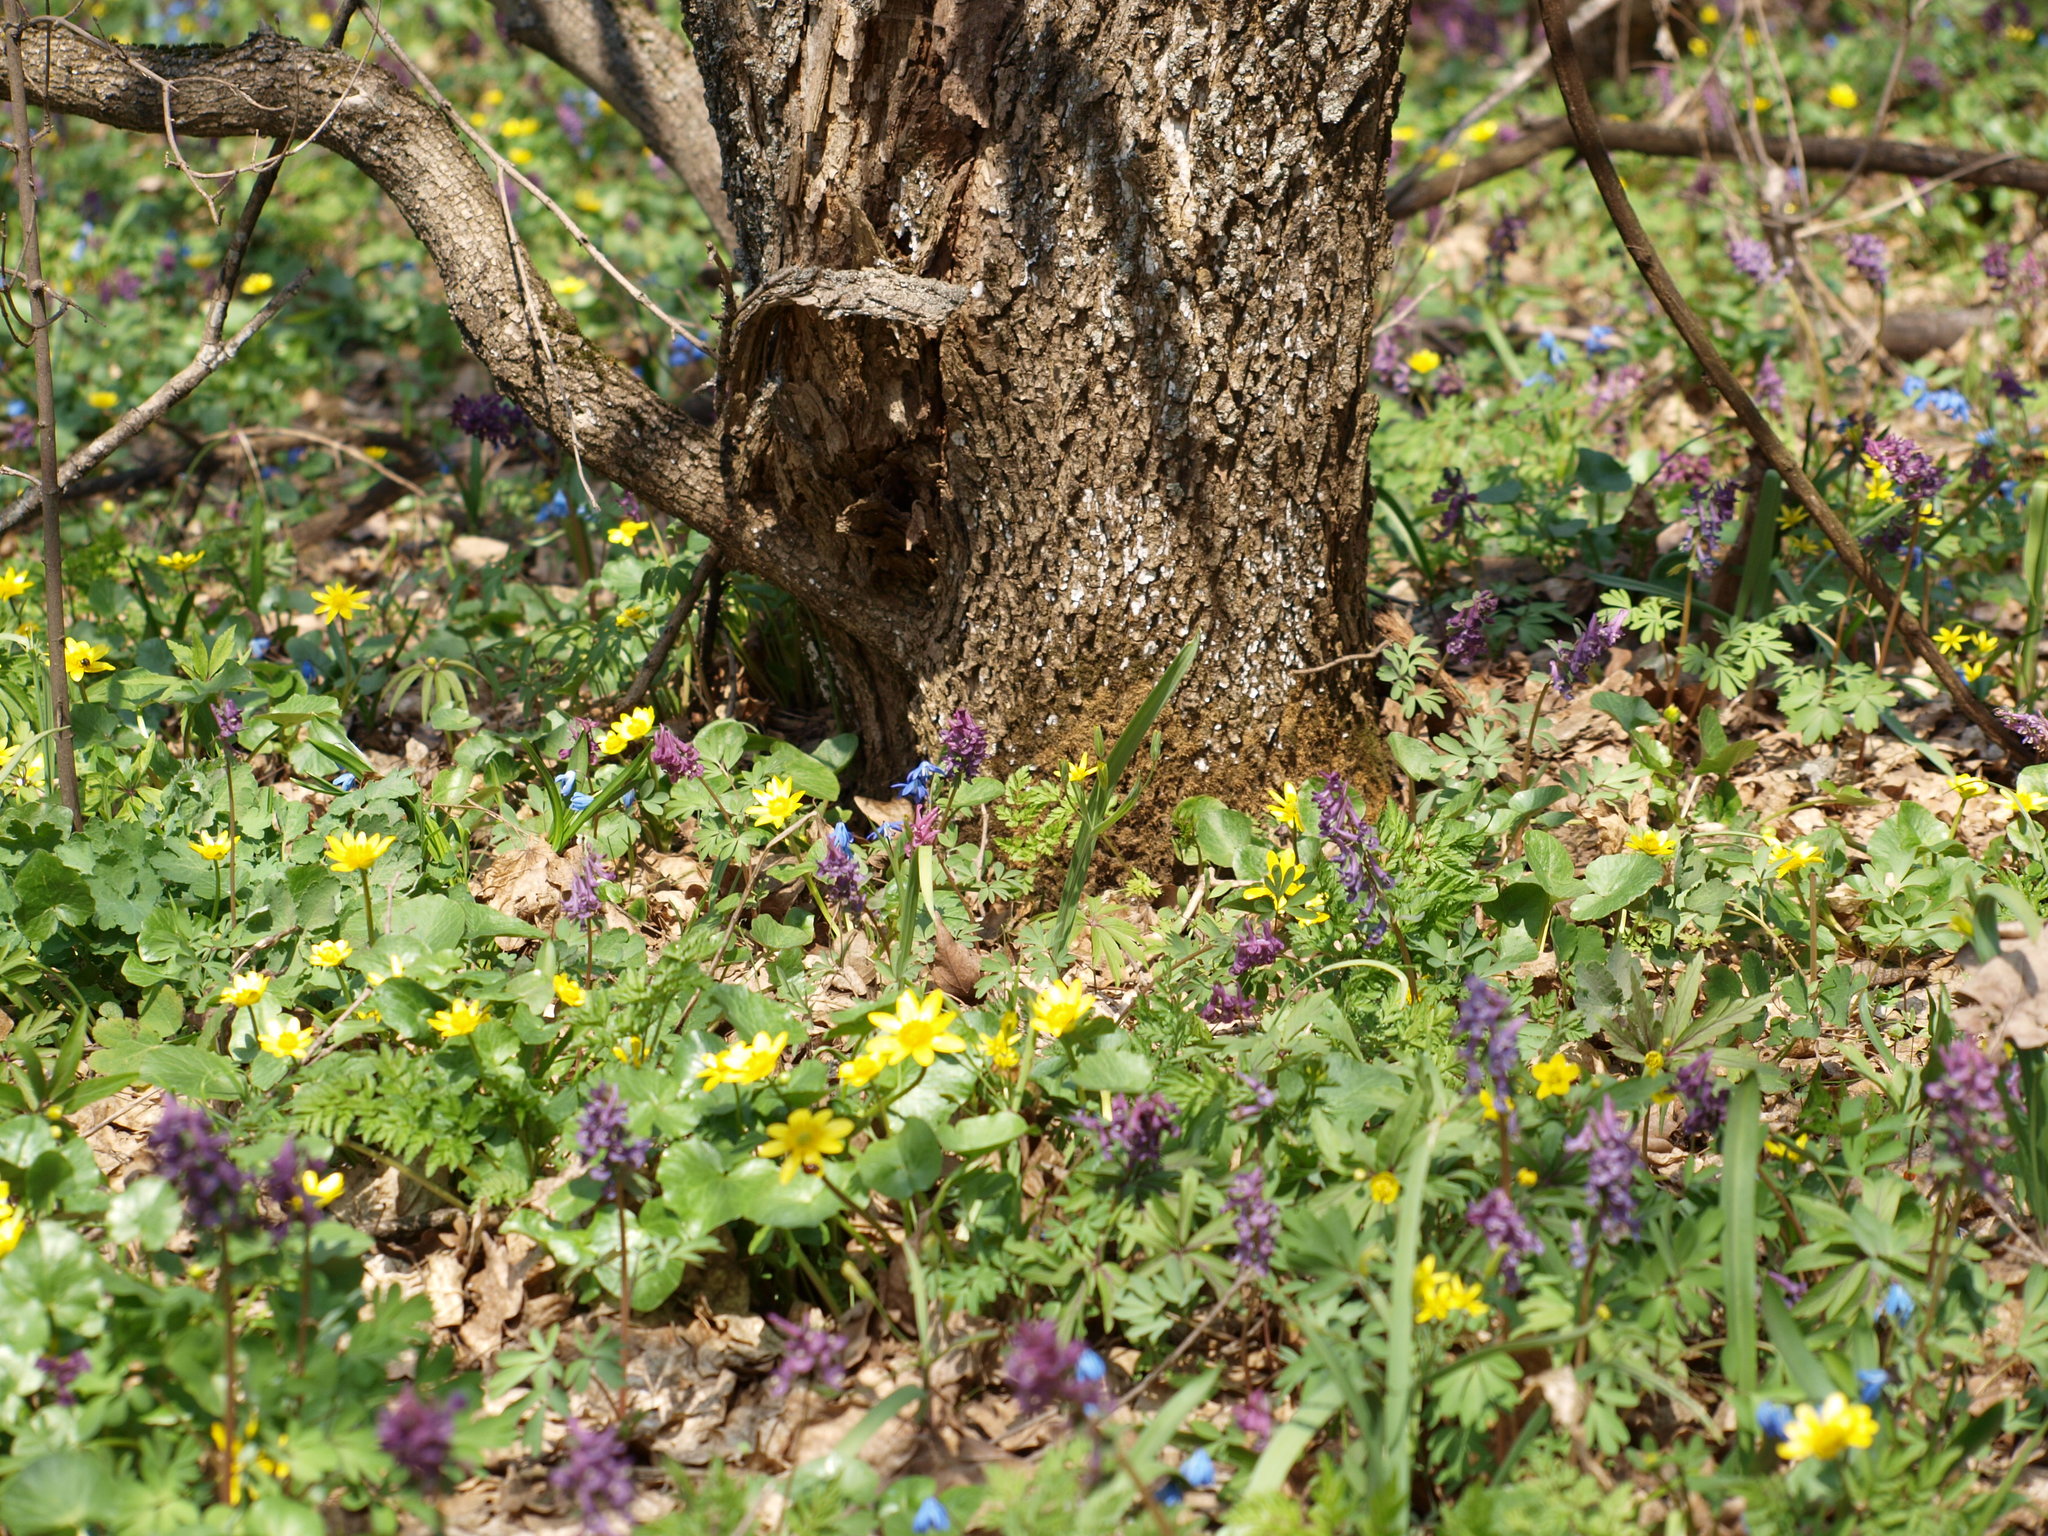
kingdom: Plantae
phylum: Tracheophyta
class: Magnoliopsida
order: Ranunculales
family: Ranunculaceae
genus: Ficaria
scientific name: Ficaria verna
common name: Lesser celandine
